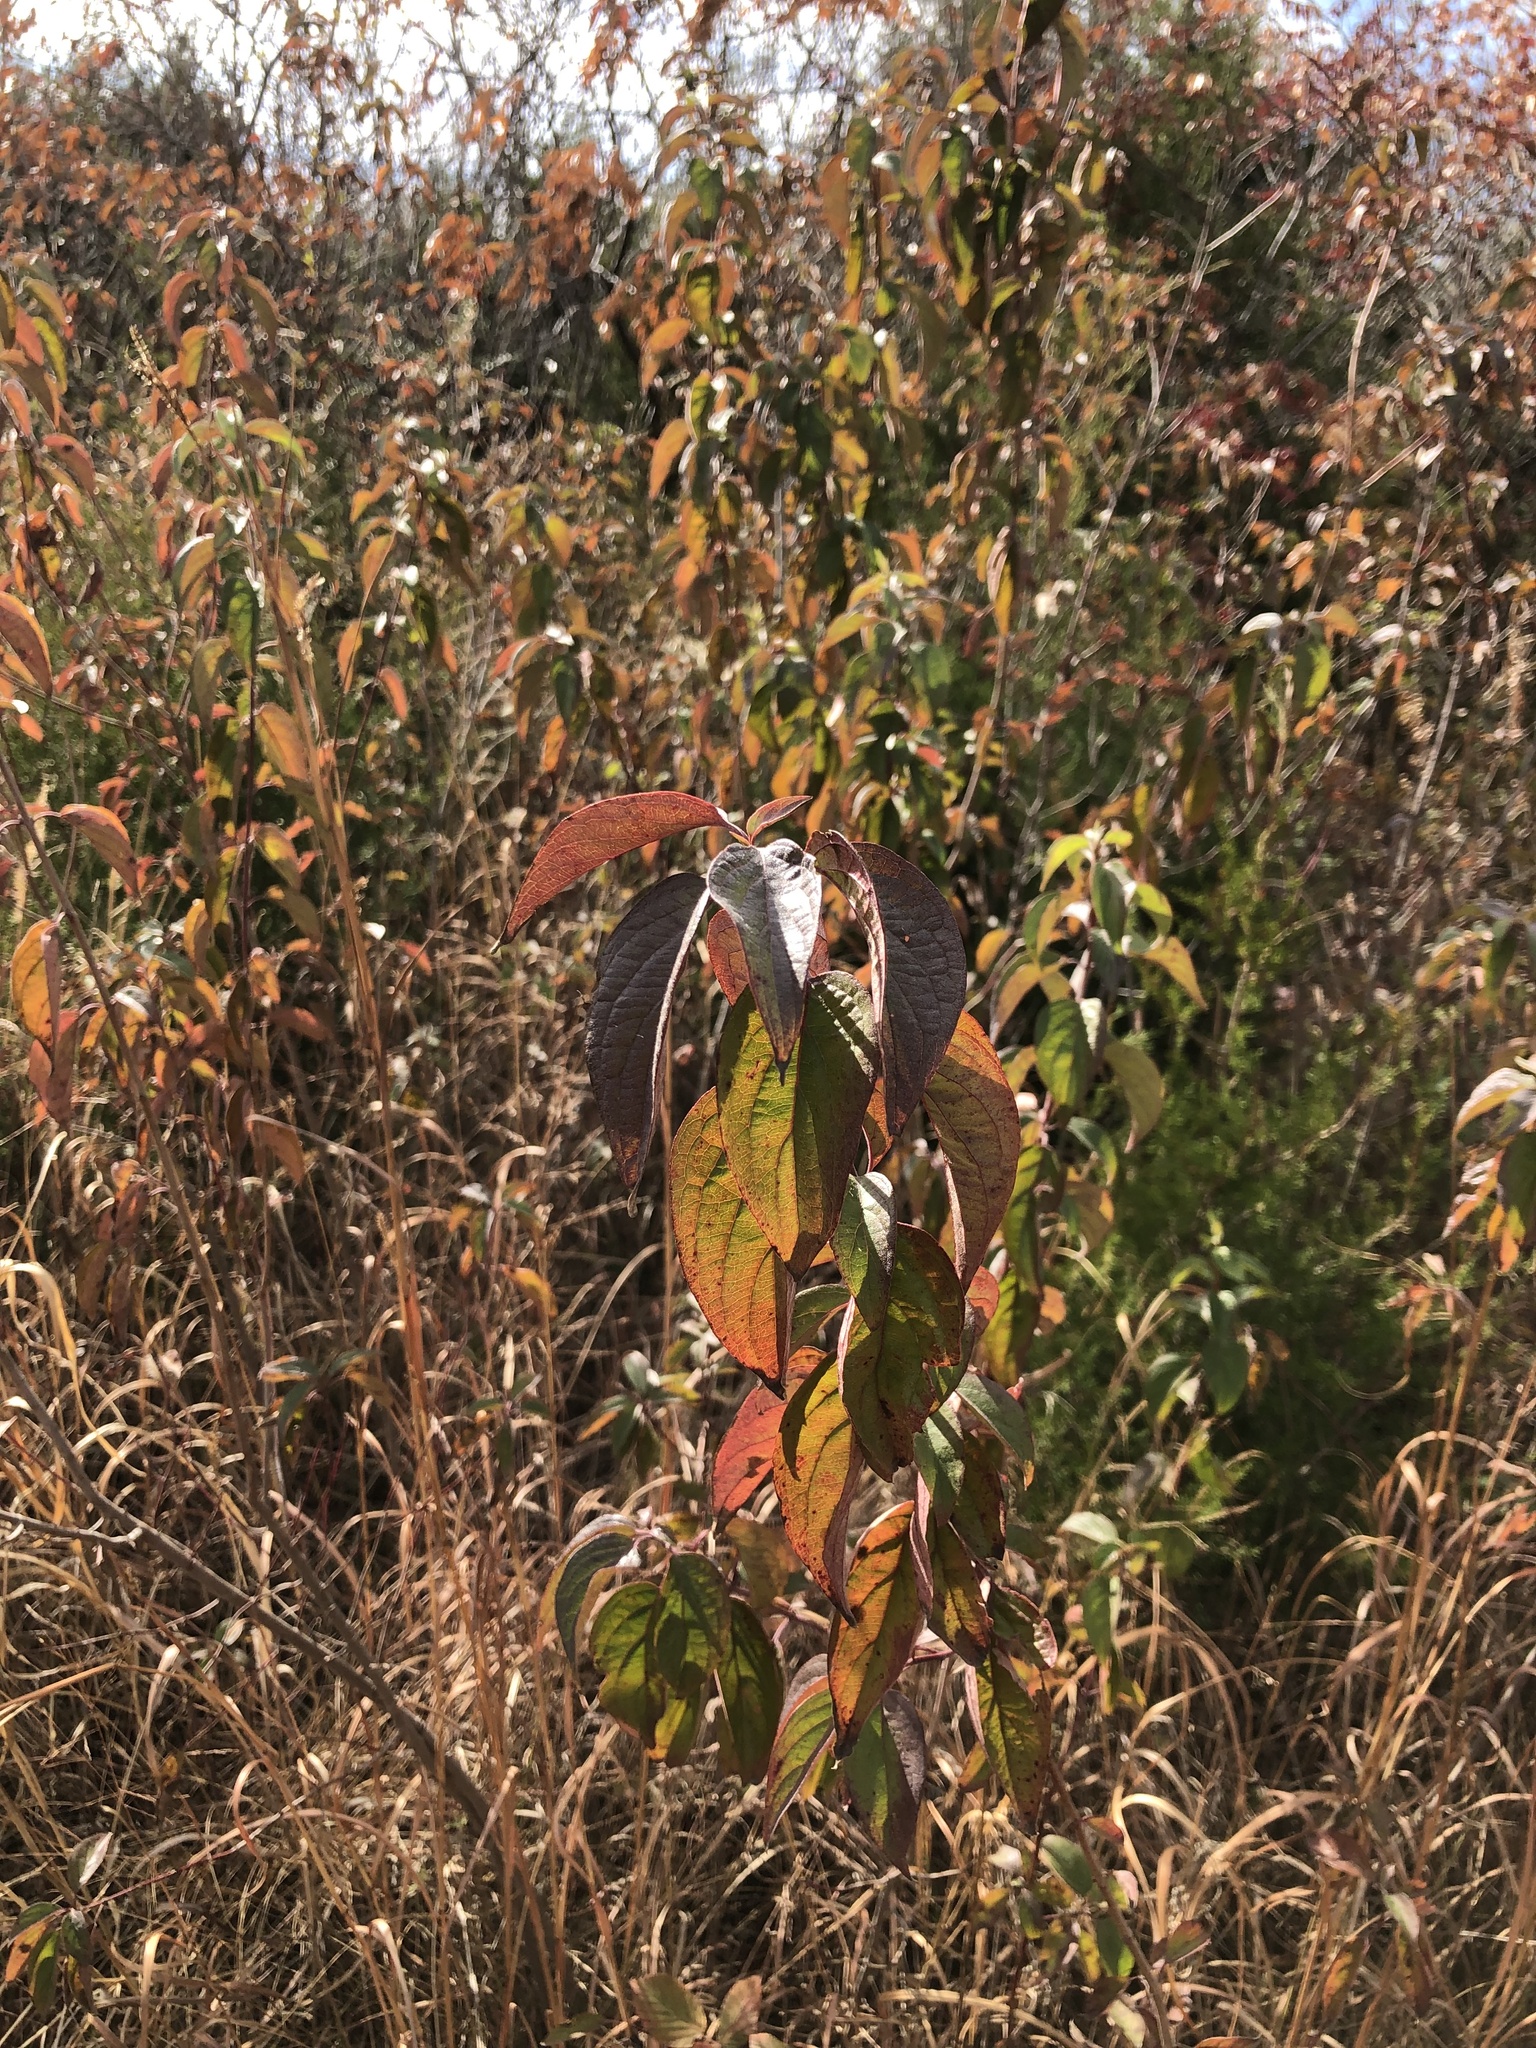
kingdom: Plantae
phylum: Tracheophyta
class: Magnoliopsida
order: Cornales
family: Cornaceae
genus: Cornus
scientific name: Cornus drummondii
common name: Rough-leaf dogwood
